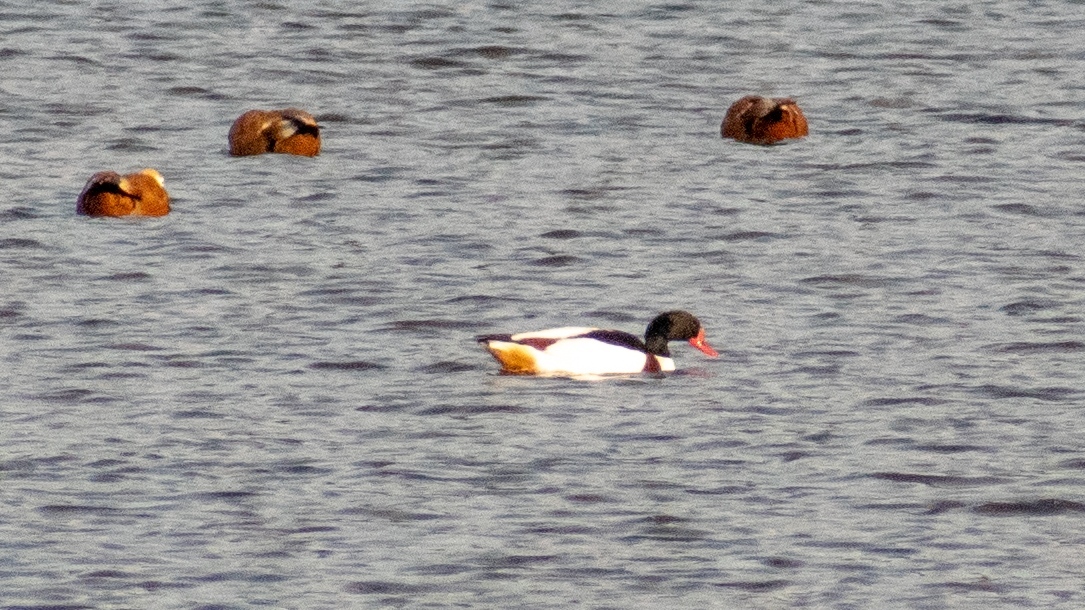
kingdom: Animalia
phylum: Chordata
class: Aves
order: Anseriformes
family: Anatidae
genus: Tadorna
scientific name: Tadorna tadorna
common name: Common shelduck
